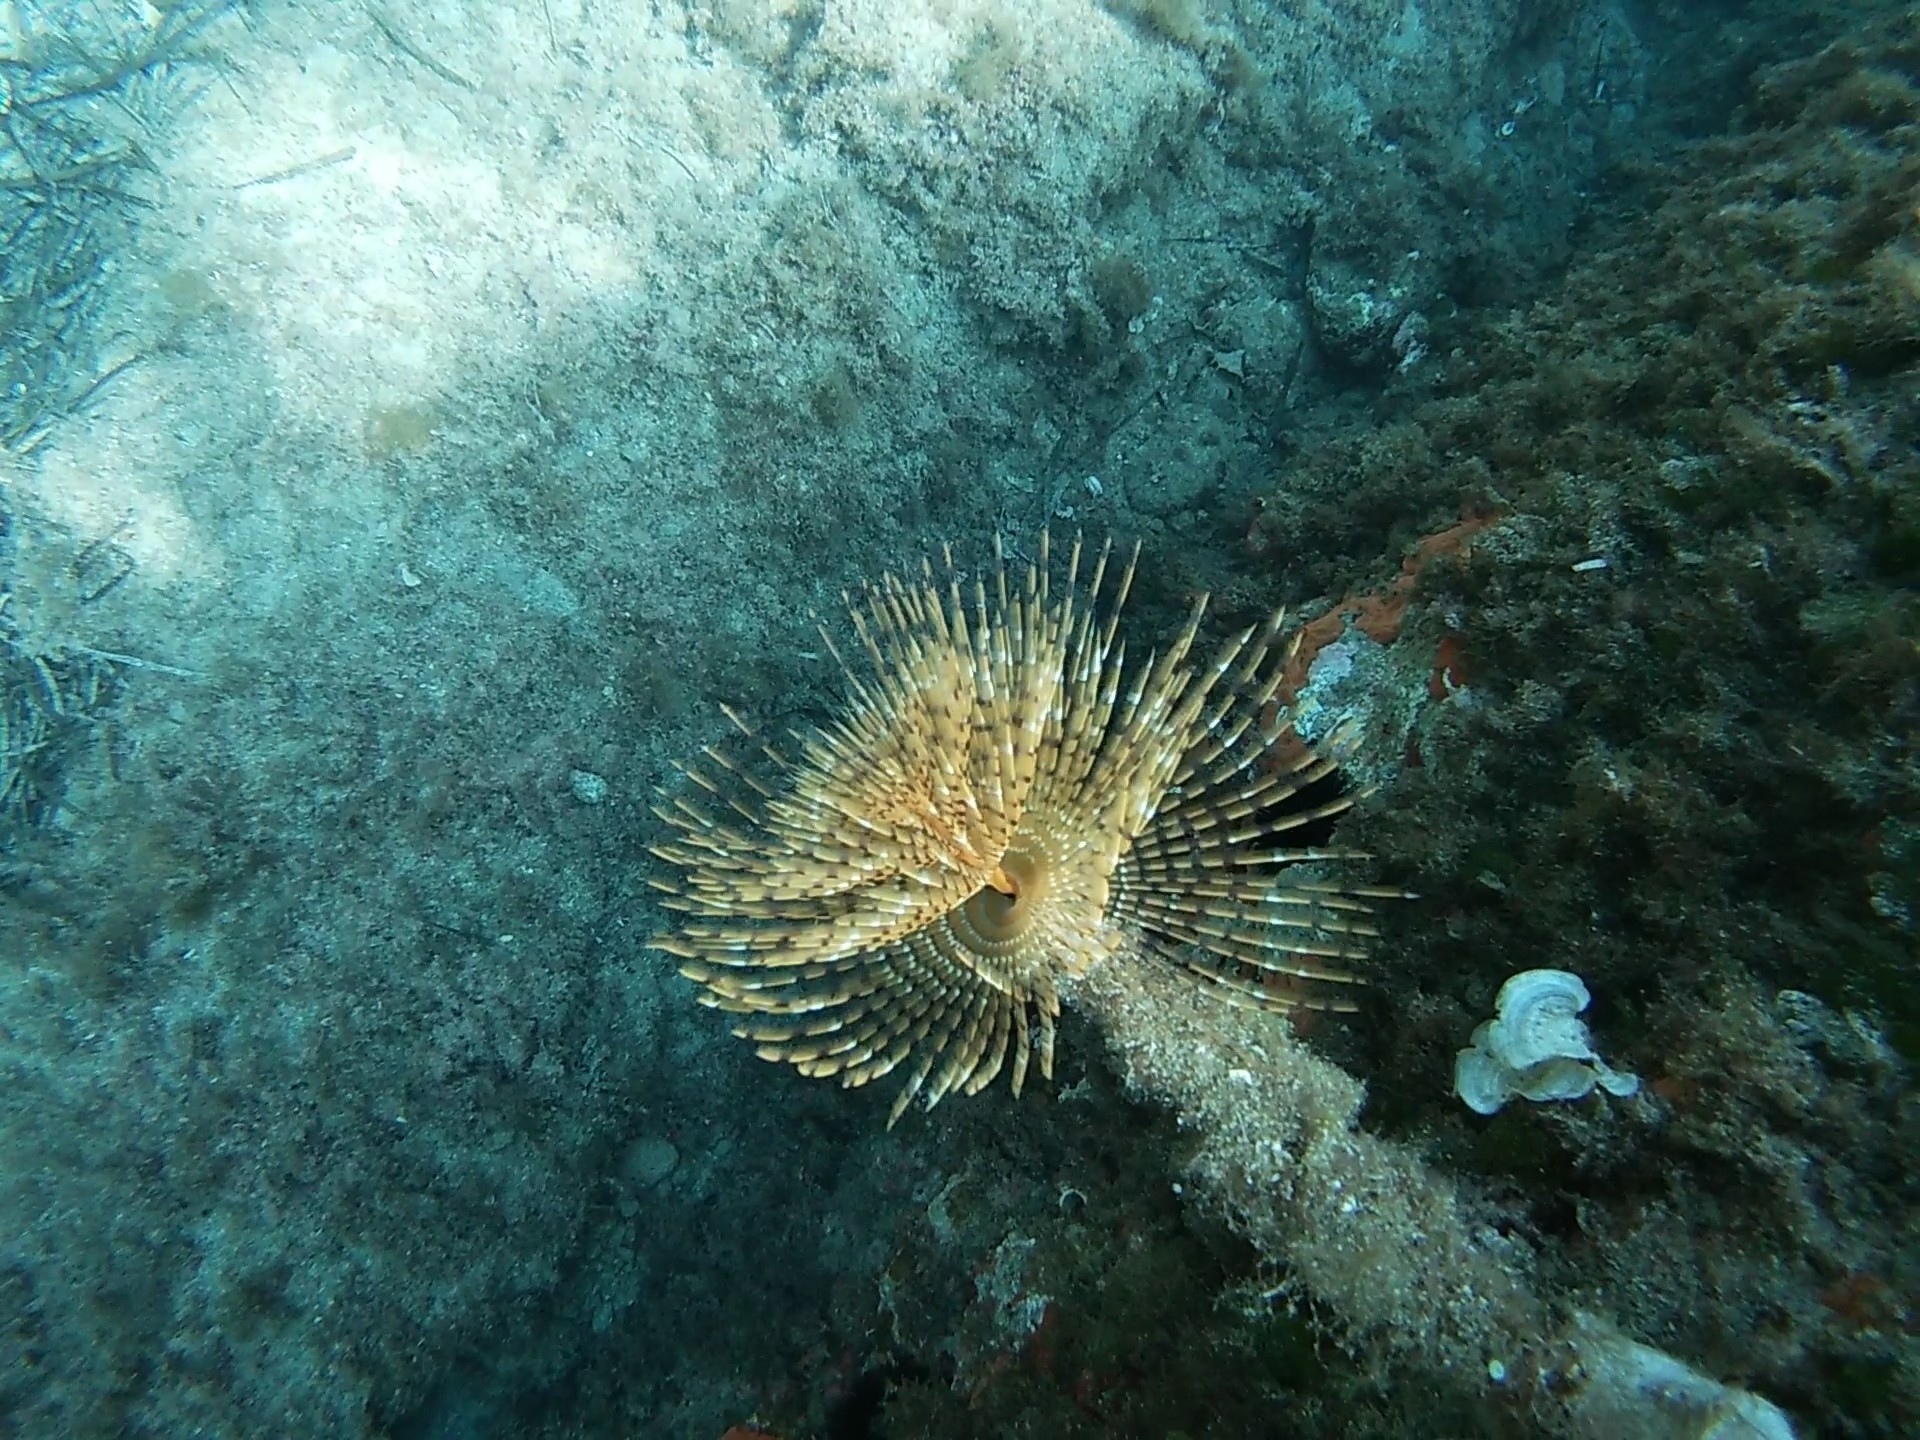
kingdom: Animalia
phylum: Annelida
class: Polychaeta
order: Sabellida
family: Sabellidae
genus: Sabella
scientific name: Sabella spallanzanii
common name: Feather duster worm
